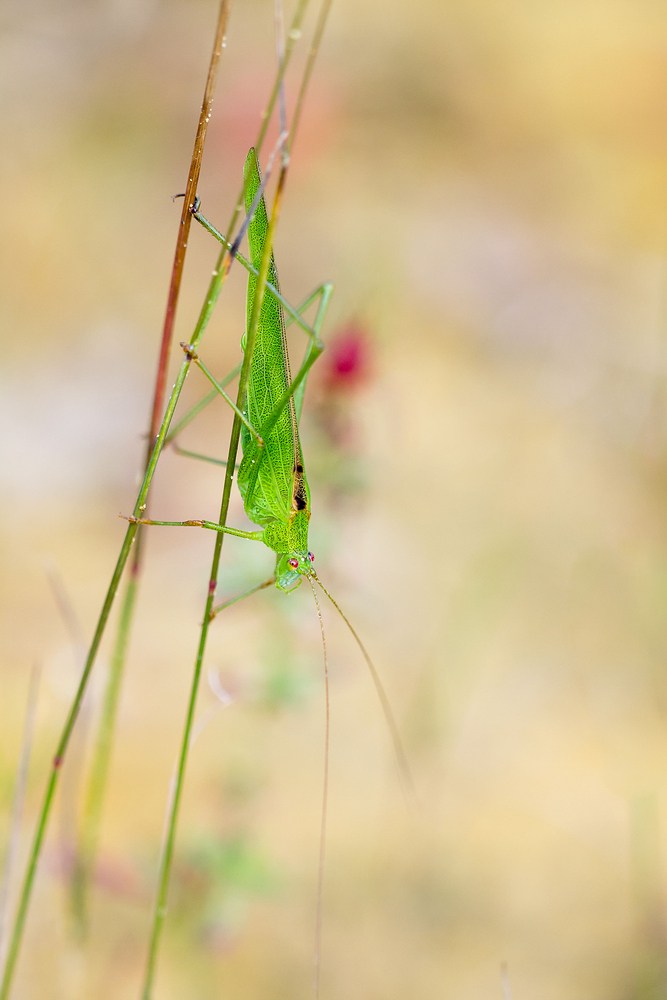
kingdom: Animalia
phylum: Arthropoda
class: Insecta
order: Orthoptera
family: Tettigoniidae
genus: Phaneroptera
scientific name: Phaneroptera falcata
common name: Sickle-bearing bush-cricket
